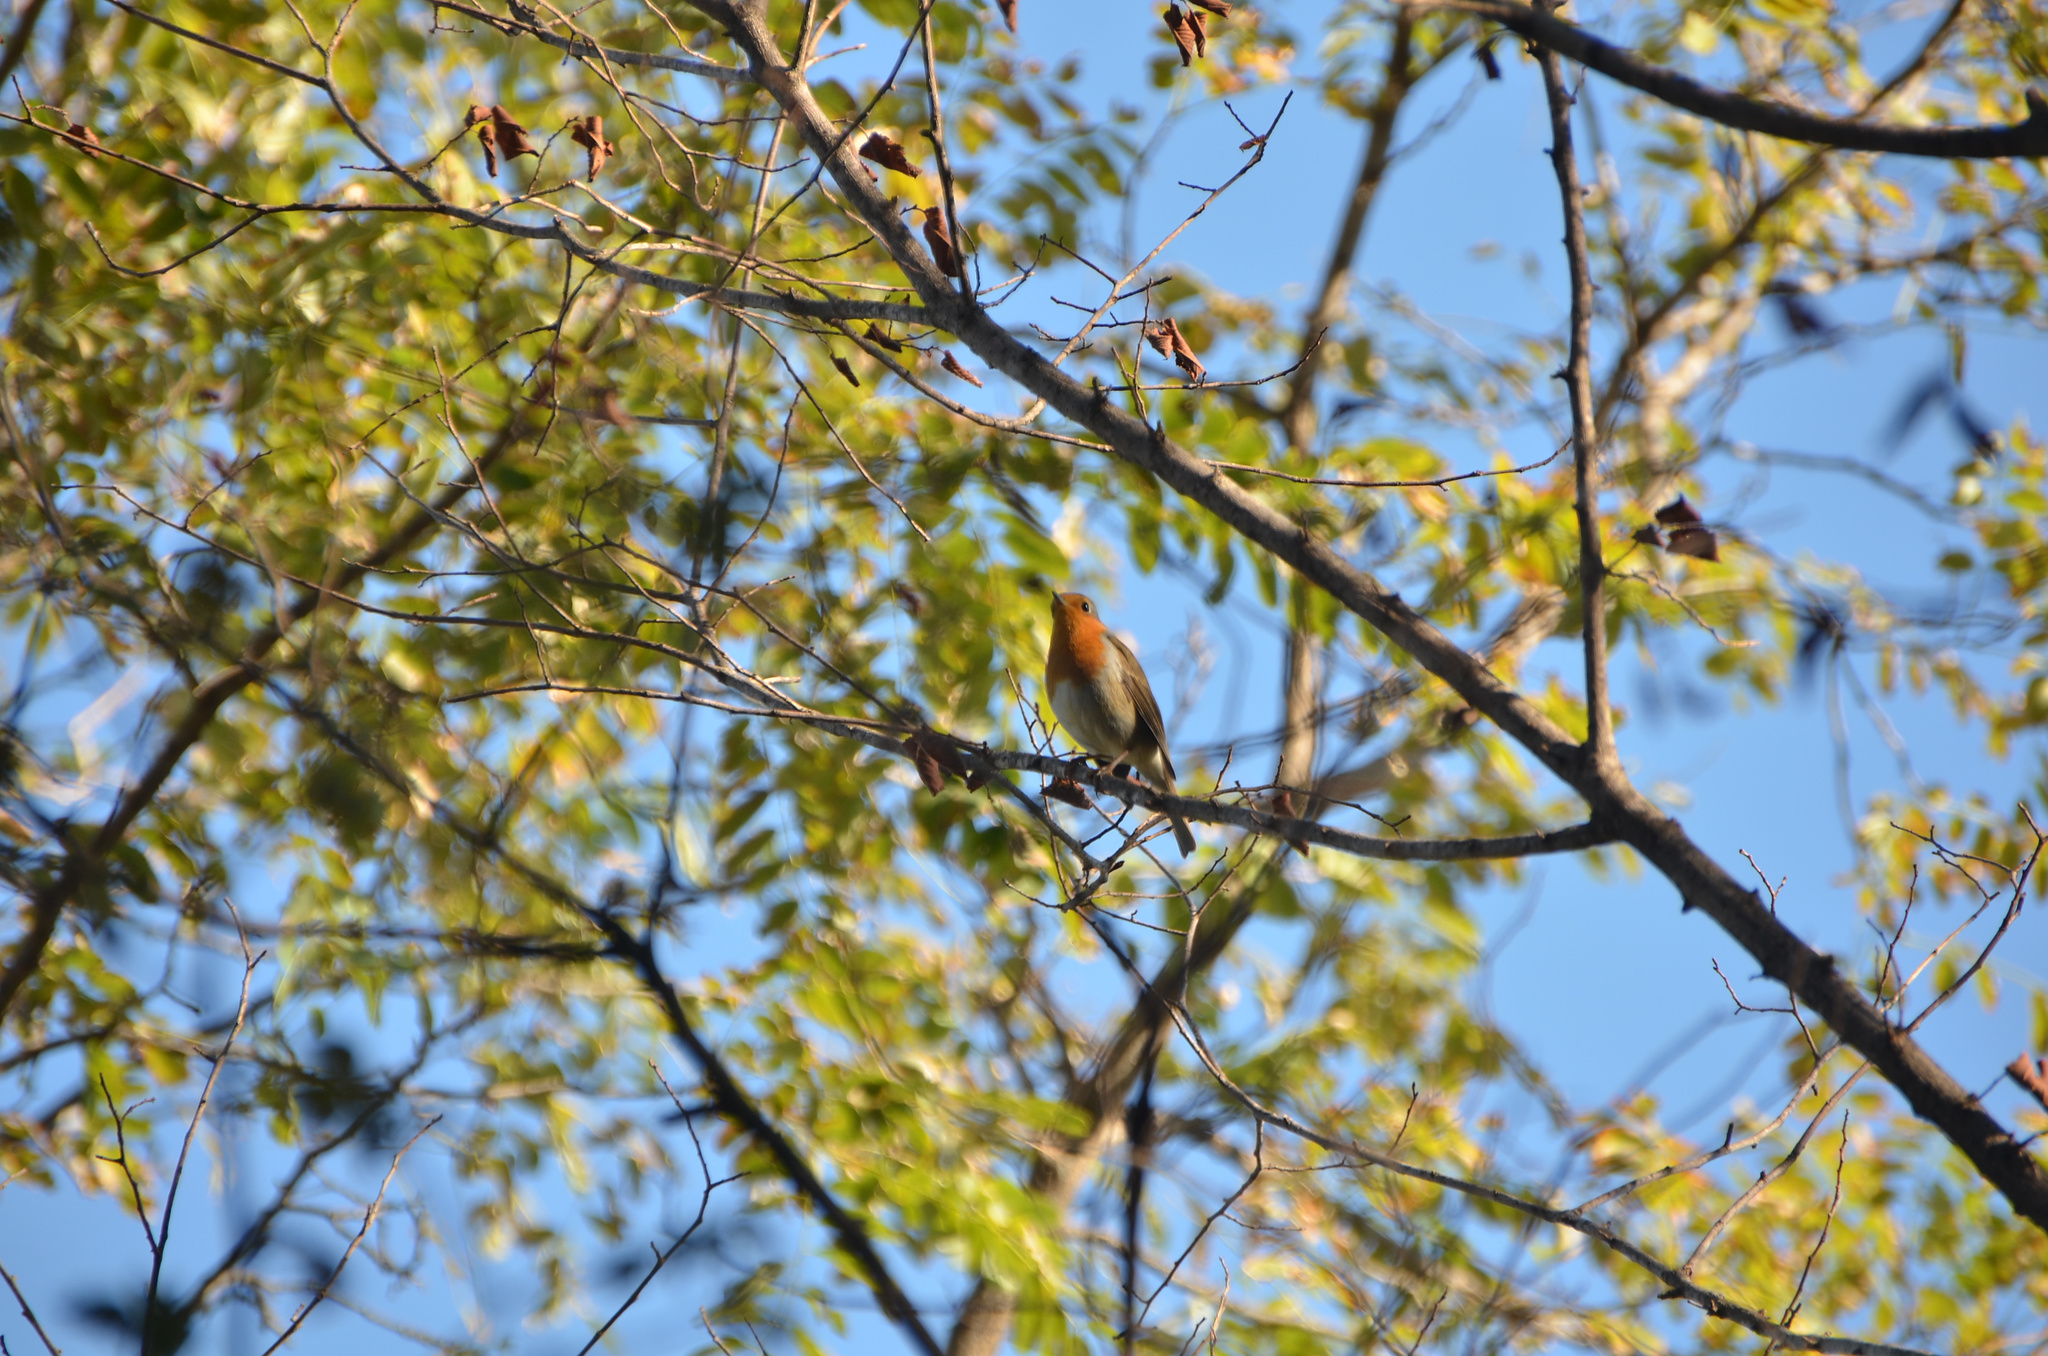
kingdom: Animalia
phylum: Chordata
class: Aves
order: Passeriformes
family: Muscicapidae
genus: Erithacus
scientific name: Erithacus rubecula
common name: European robin
